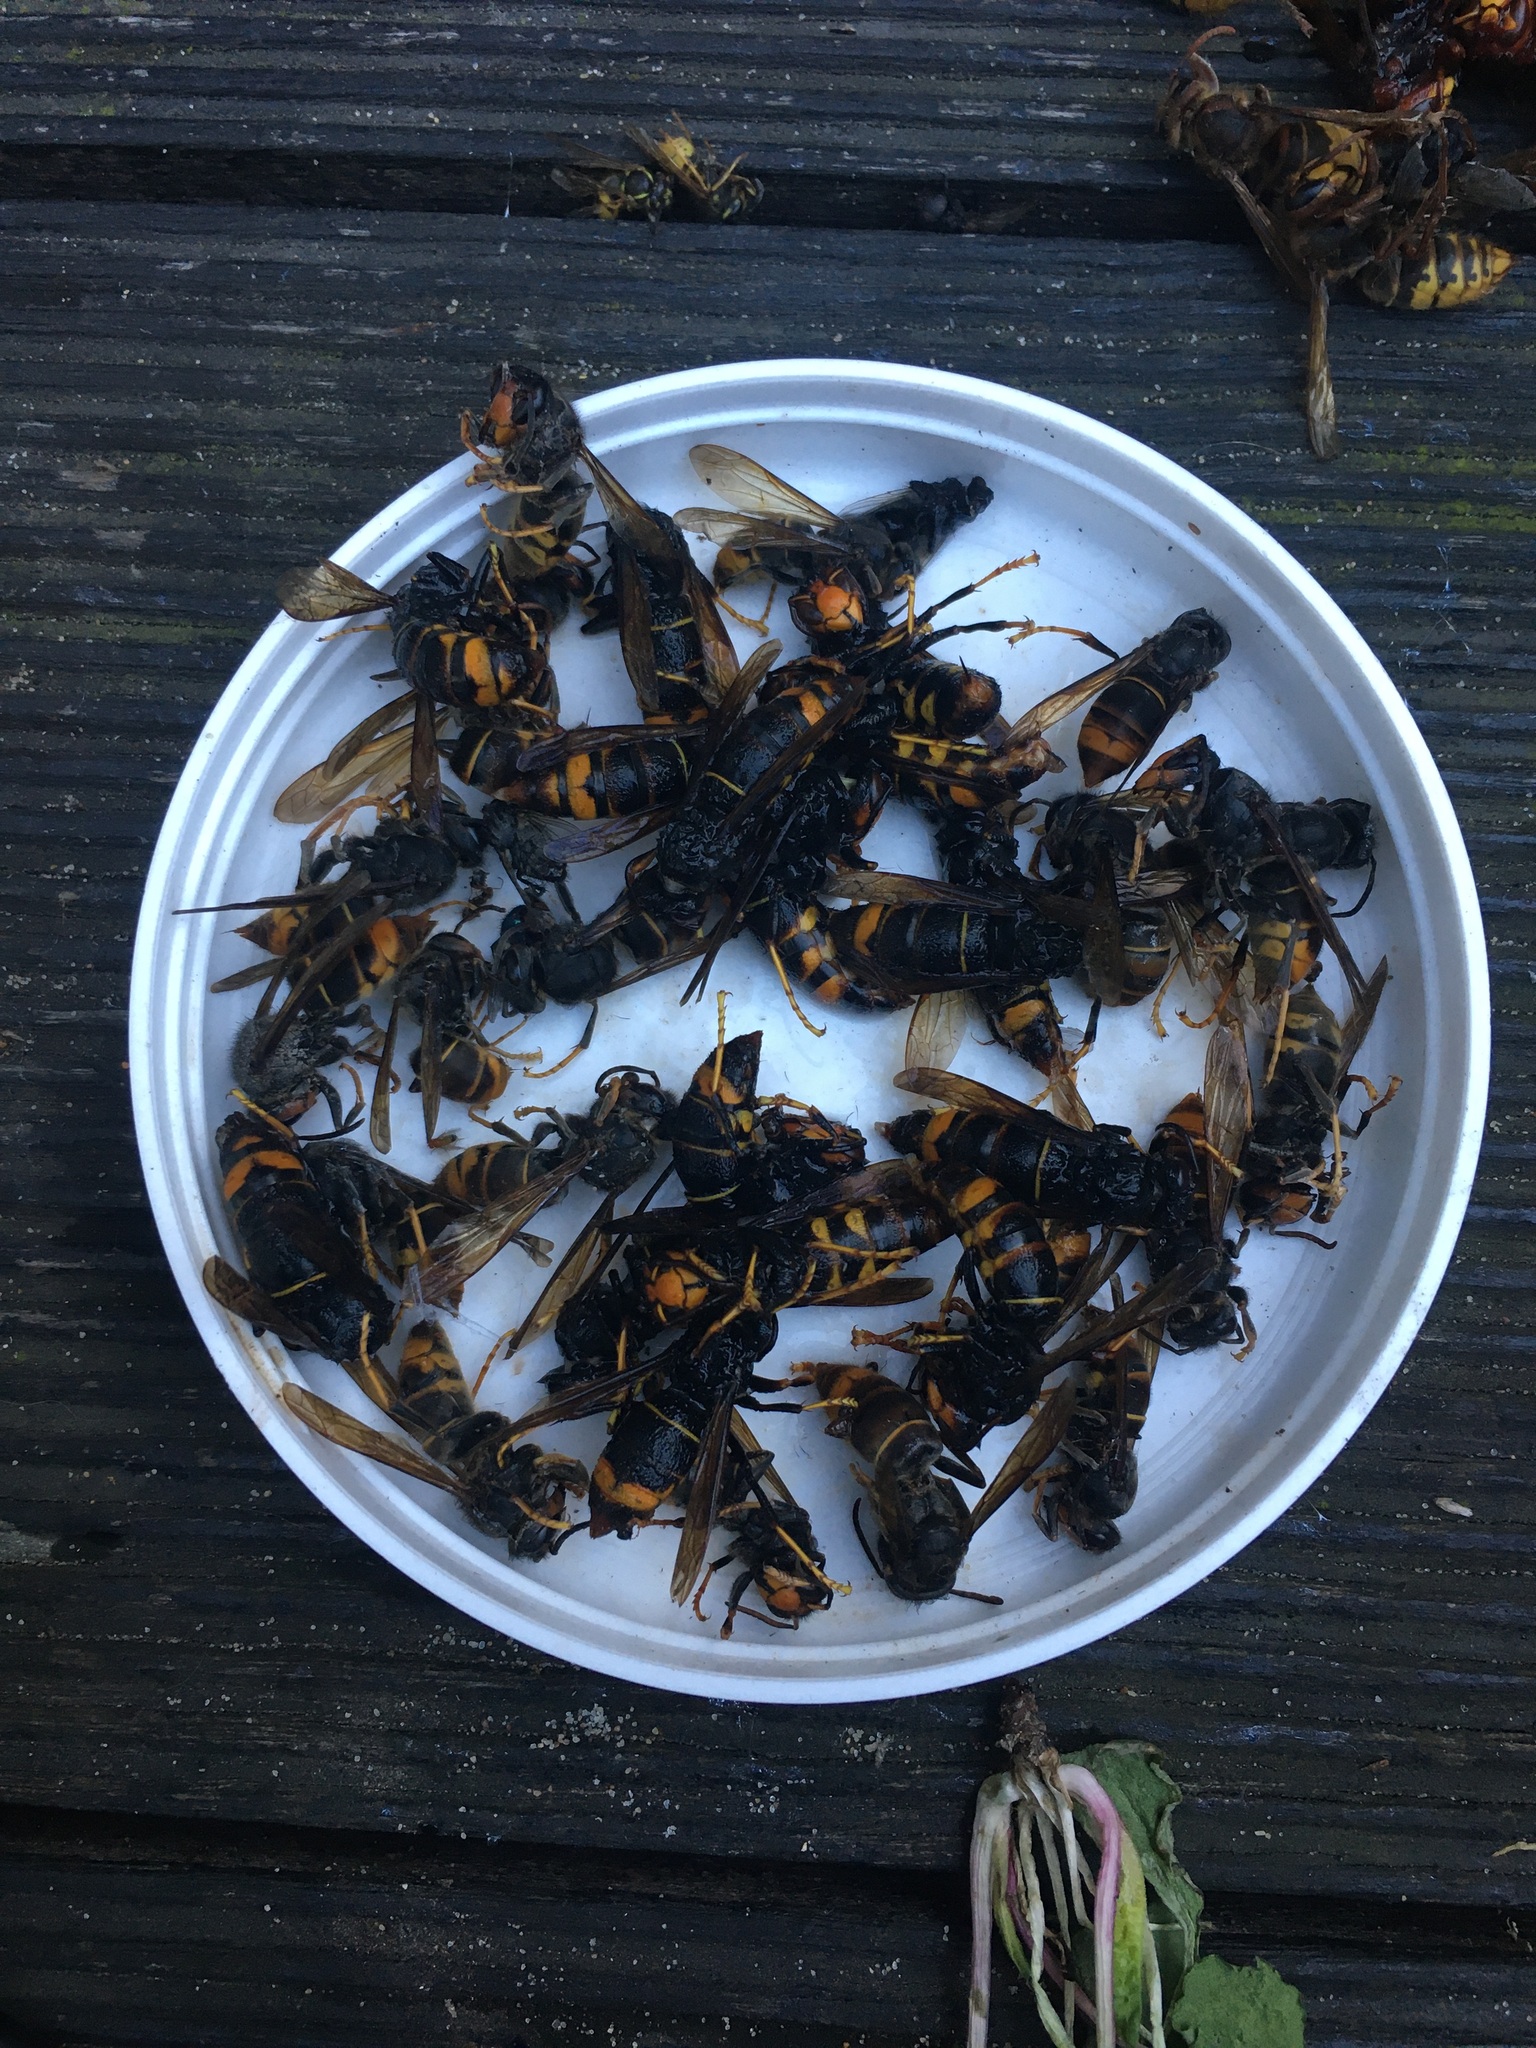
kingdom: Animalia
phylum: Arthropoda
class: Insecta
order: Hymenoptera
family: Vespidae
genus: Vespa
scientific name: Vespa velutina
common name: Asian hornet
